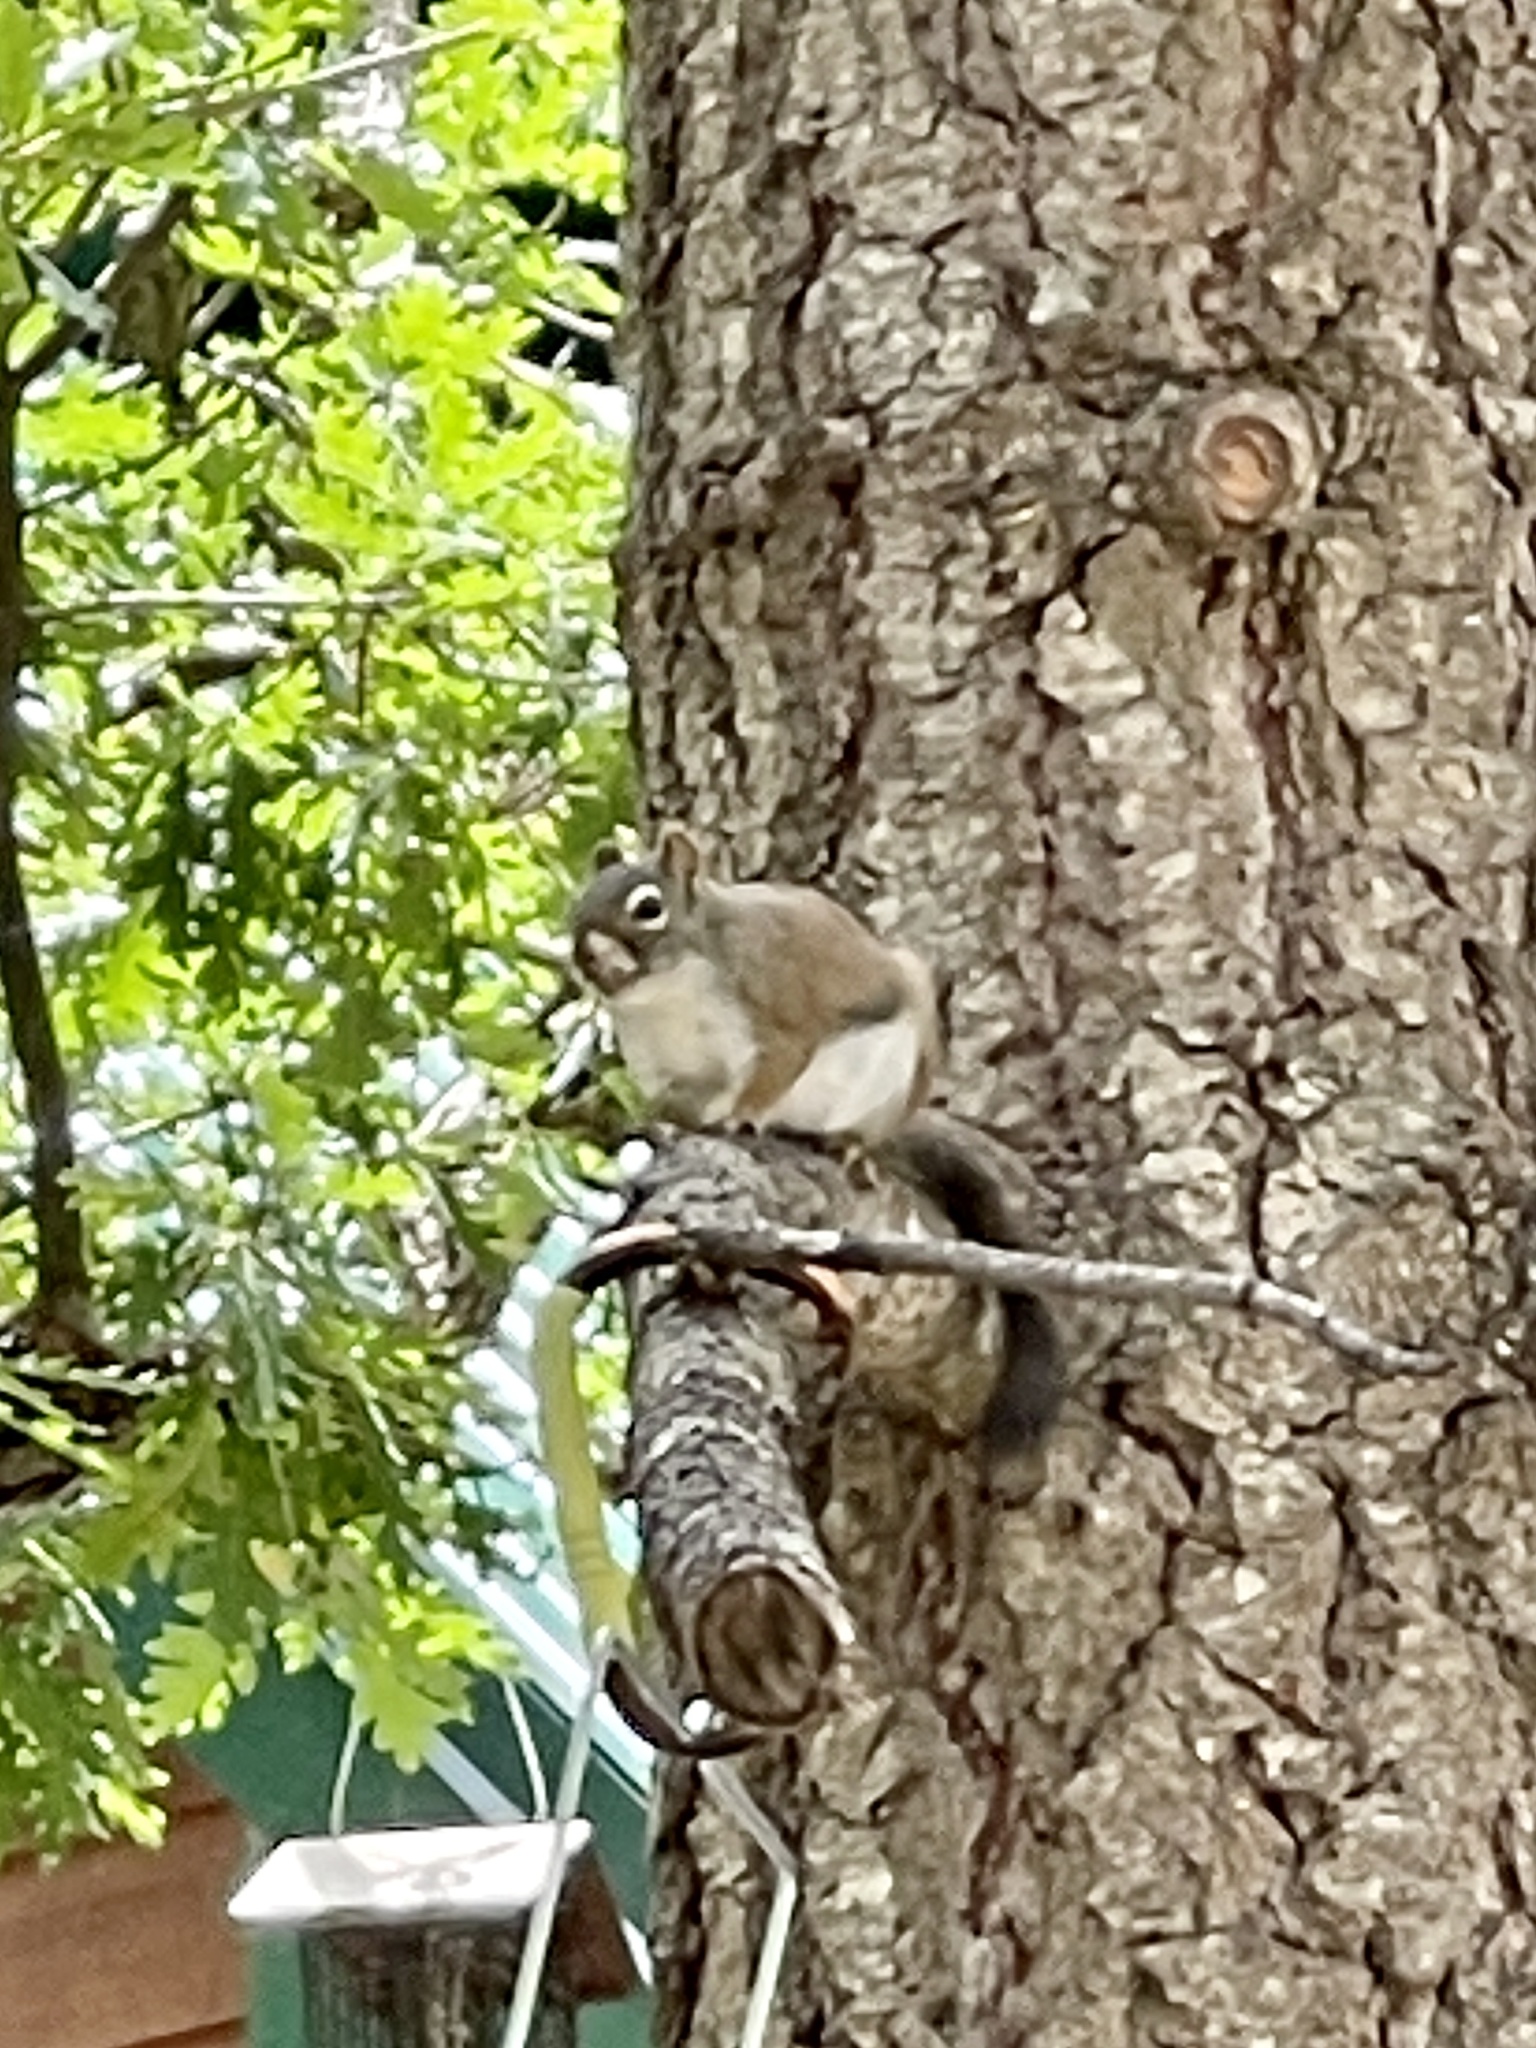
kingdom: Animalia
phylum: Chordata
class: Mammalia
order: Rodentia
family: Sciuridae
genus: Tamiasciurus
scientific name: Tamiasciurus hudsonicus
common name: Red squirrel
